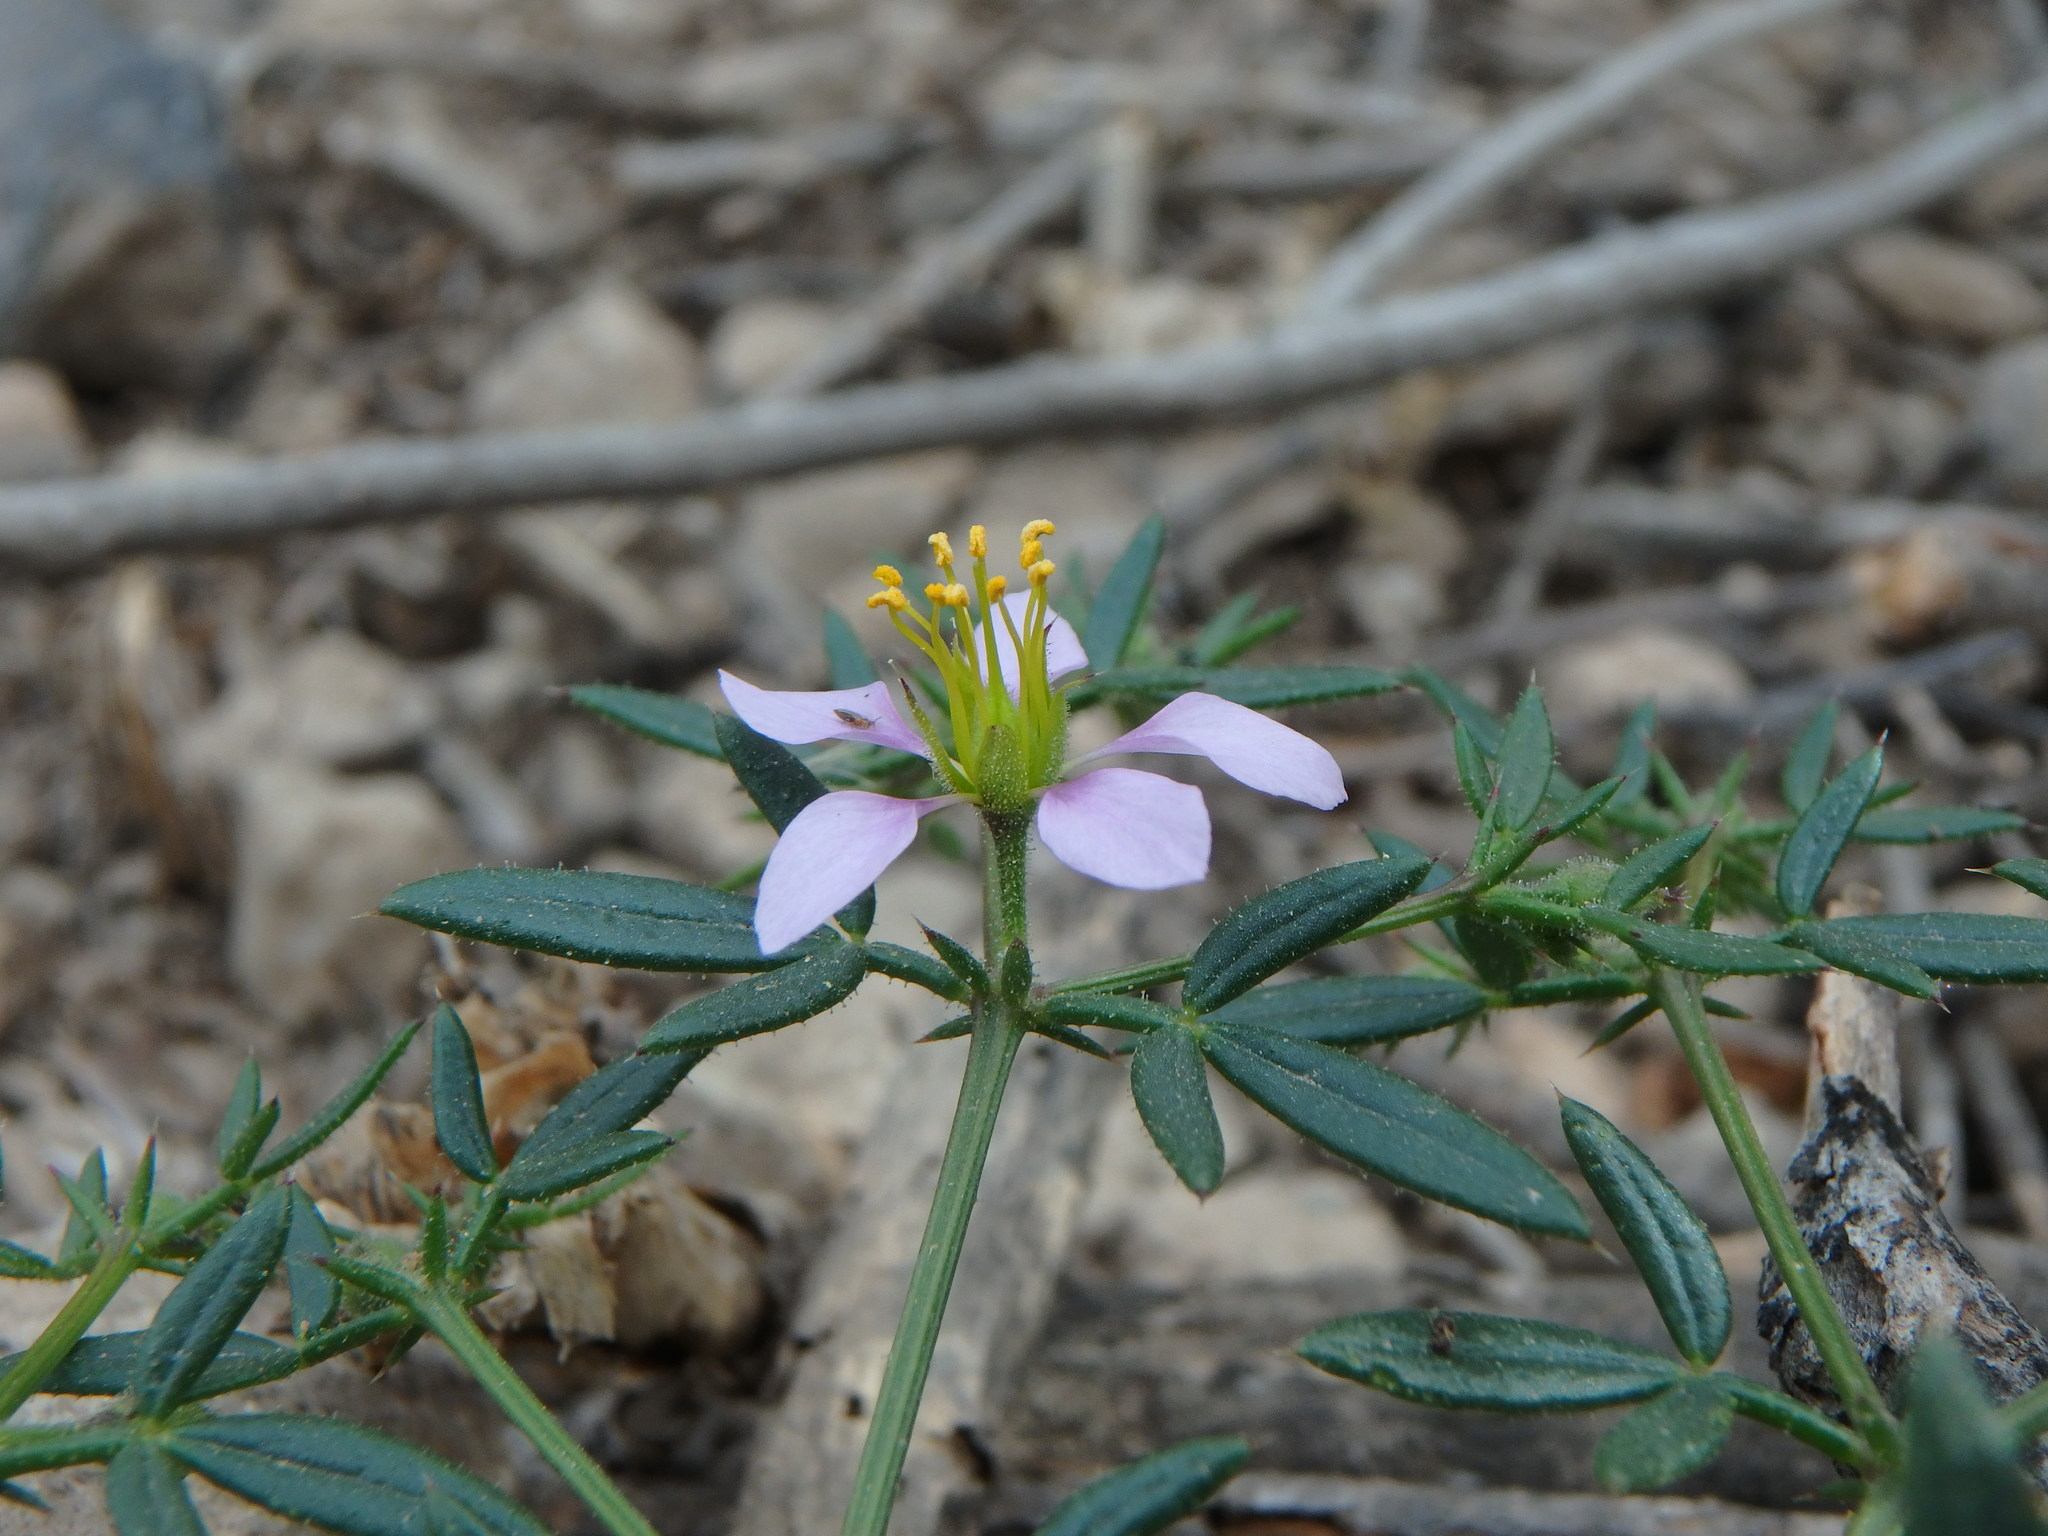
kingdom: Plantae
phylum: Tracheophyta
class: Magnoliopsida
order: Zygophyllales
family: Zygophyllaceae
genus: Fagonia
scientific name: Fagonia cretica
